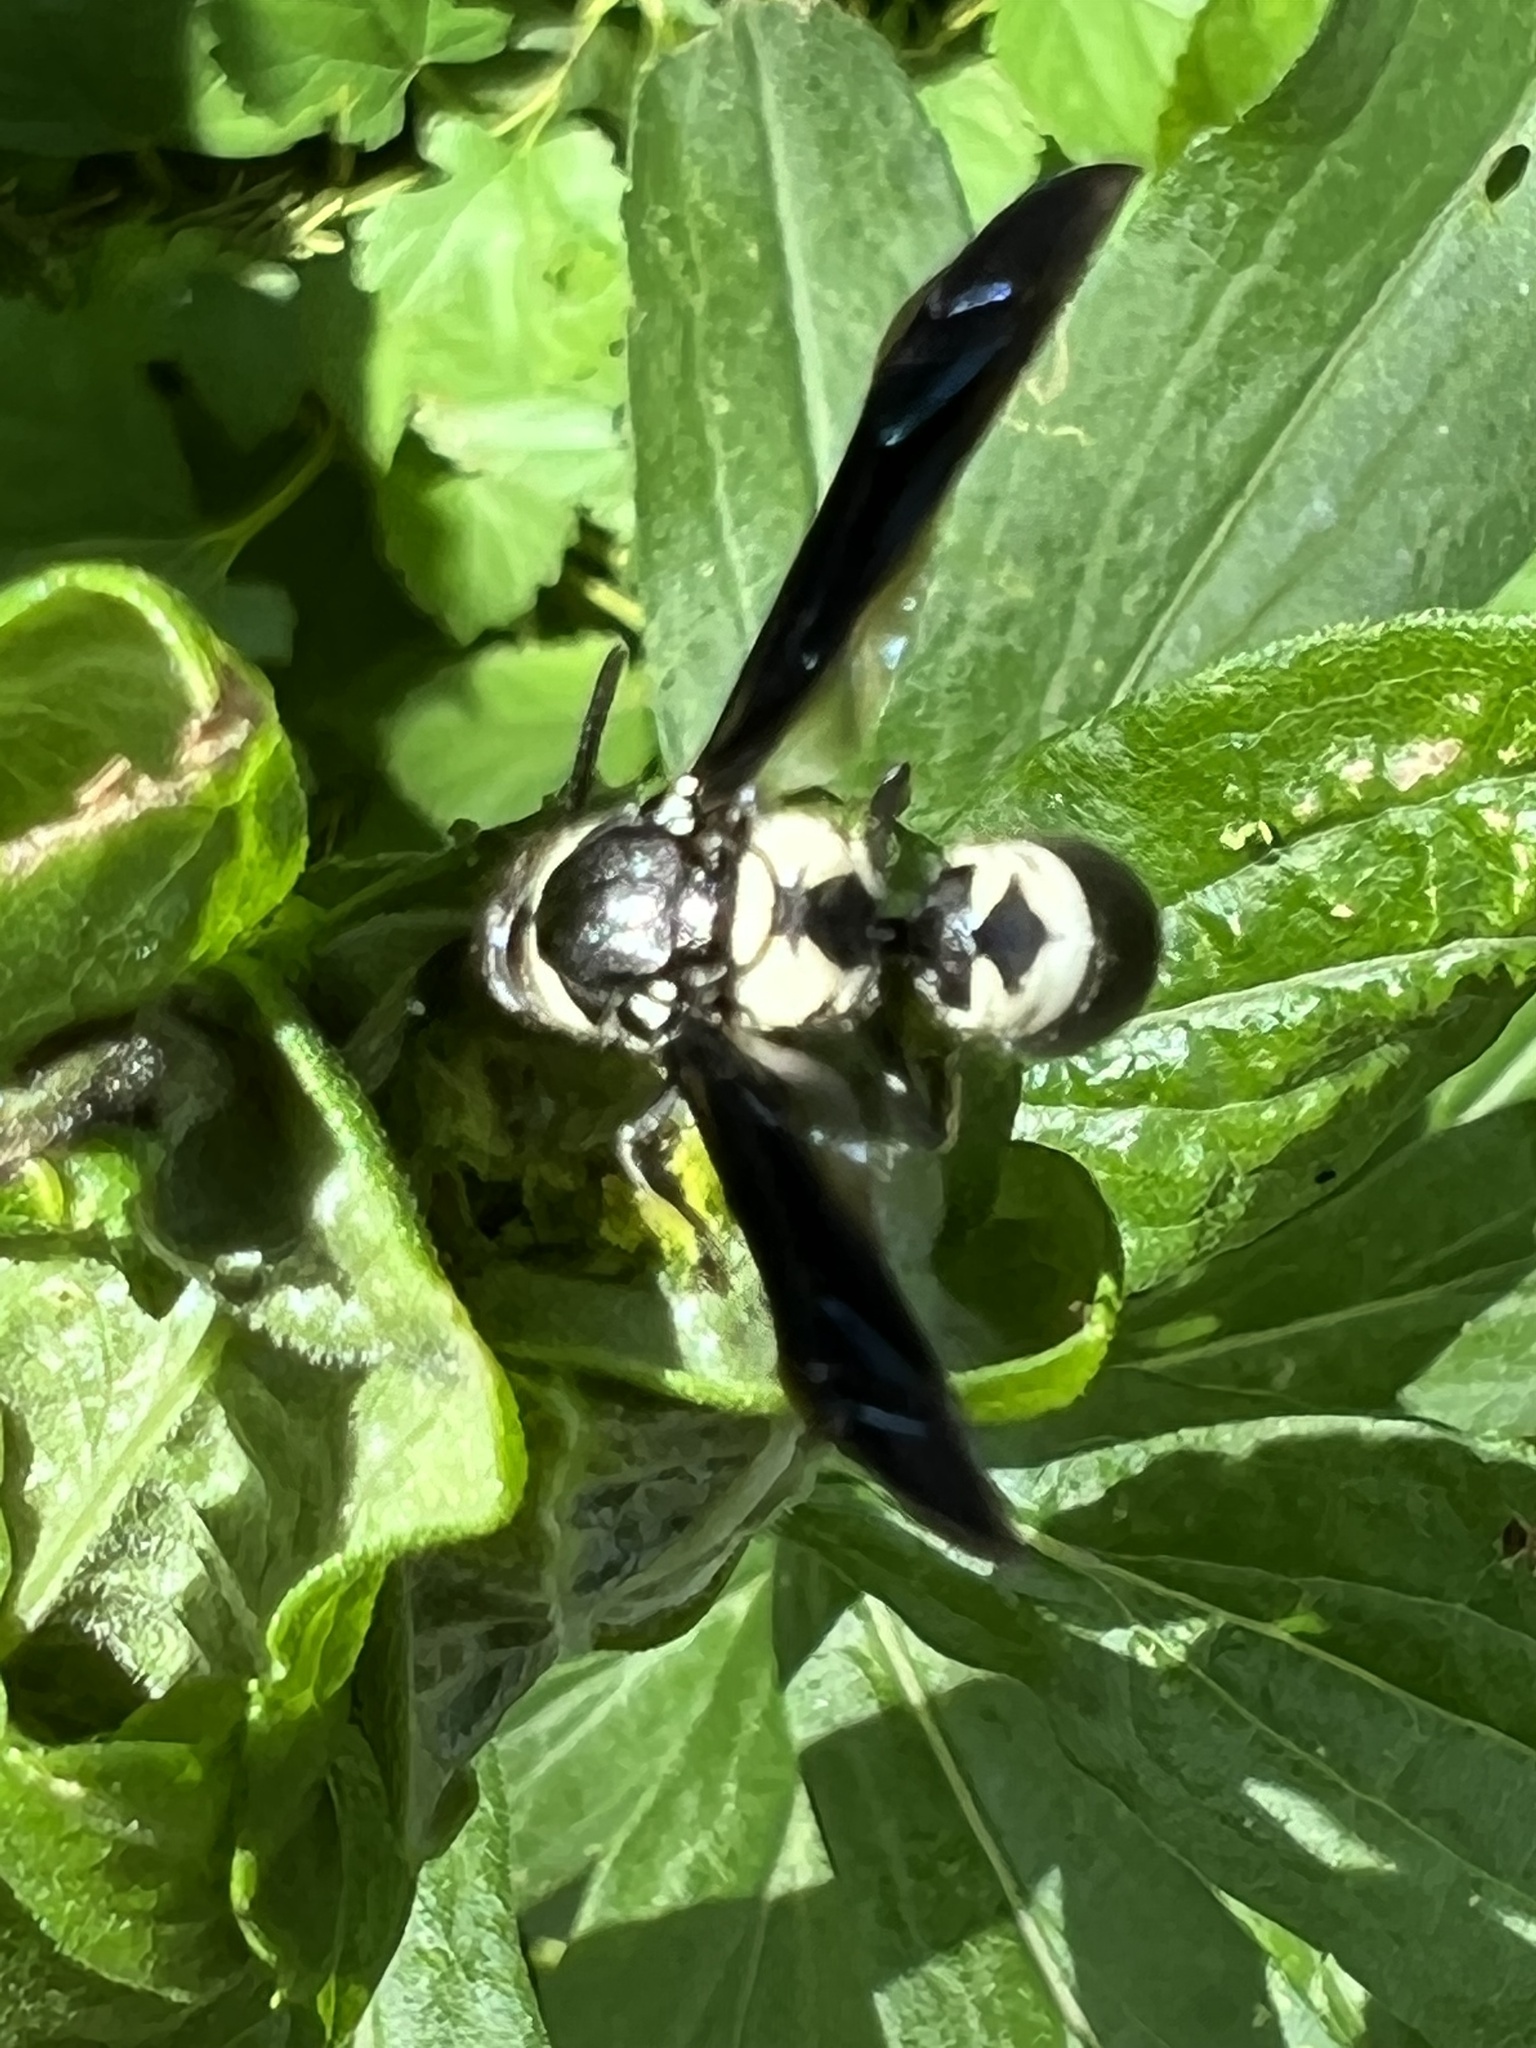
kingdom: Animalia
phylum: Arthropoda
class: Insecta
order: Hymenoptera
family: Eumenidae
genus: Pseudodynerus
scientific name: Pseudodynerus quadrisectus
